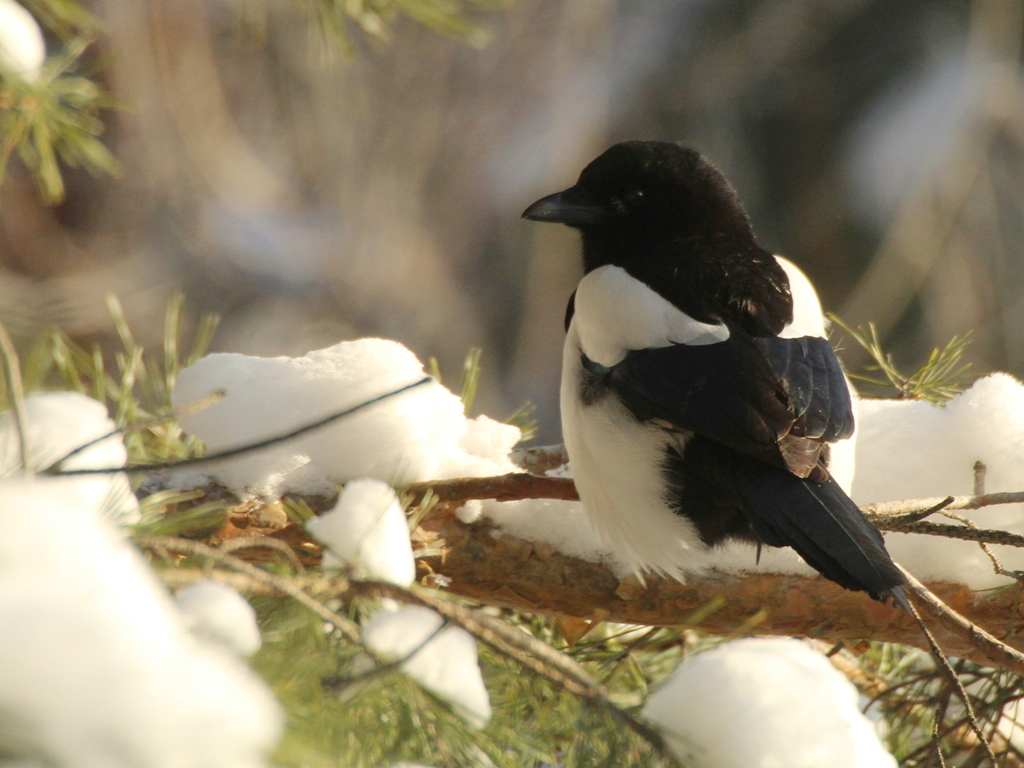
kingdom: Animalia
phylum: Chordata
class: Aves
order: Passeriformes
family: Corvidae
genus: Pica
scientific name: Pica pica
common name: Eurasian magpie
